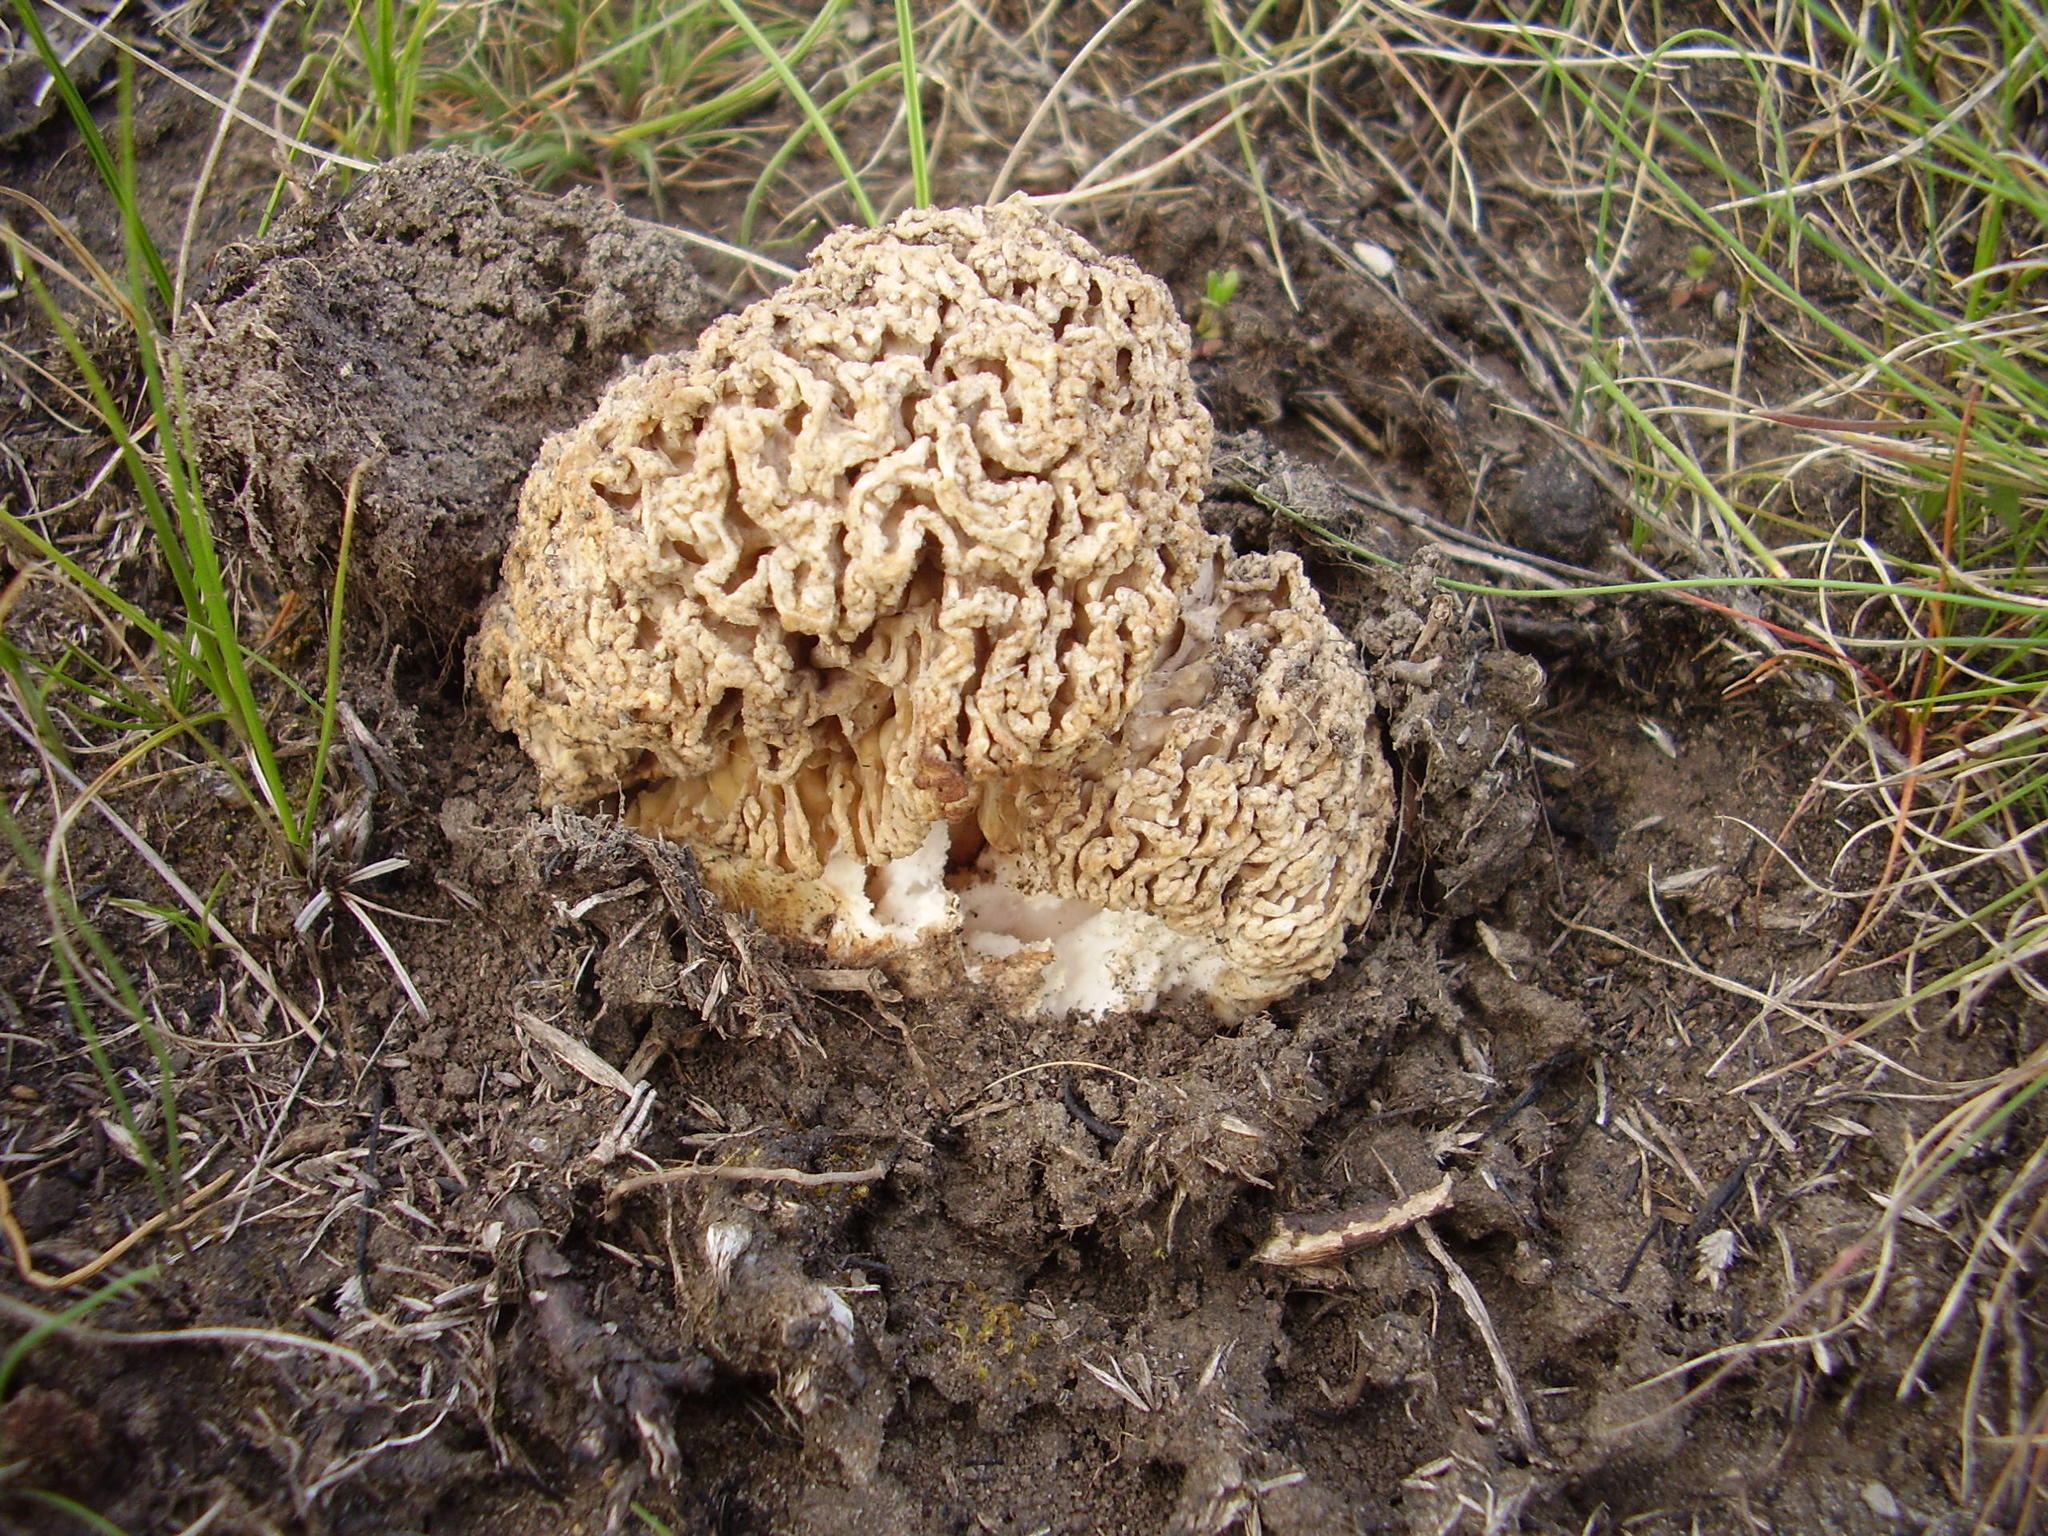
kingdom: Fungi
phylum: Ascomycota
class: Pezizomycetes
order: Pezizales
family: Morchellaceae
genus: Morchella
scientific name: Morchella steppicola
